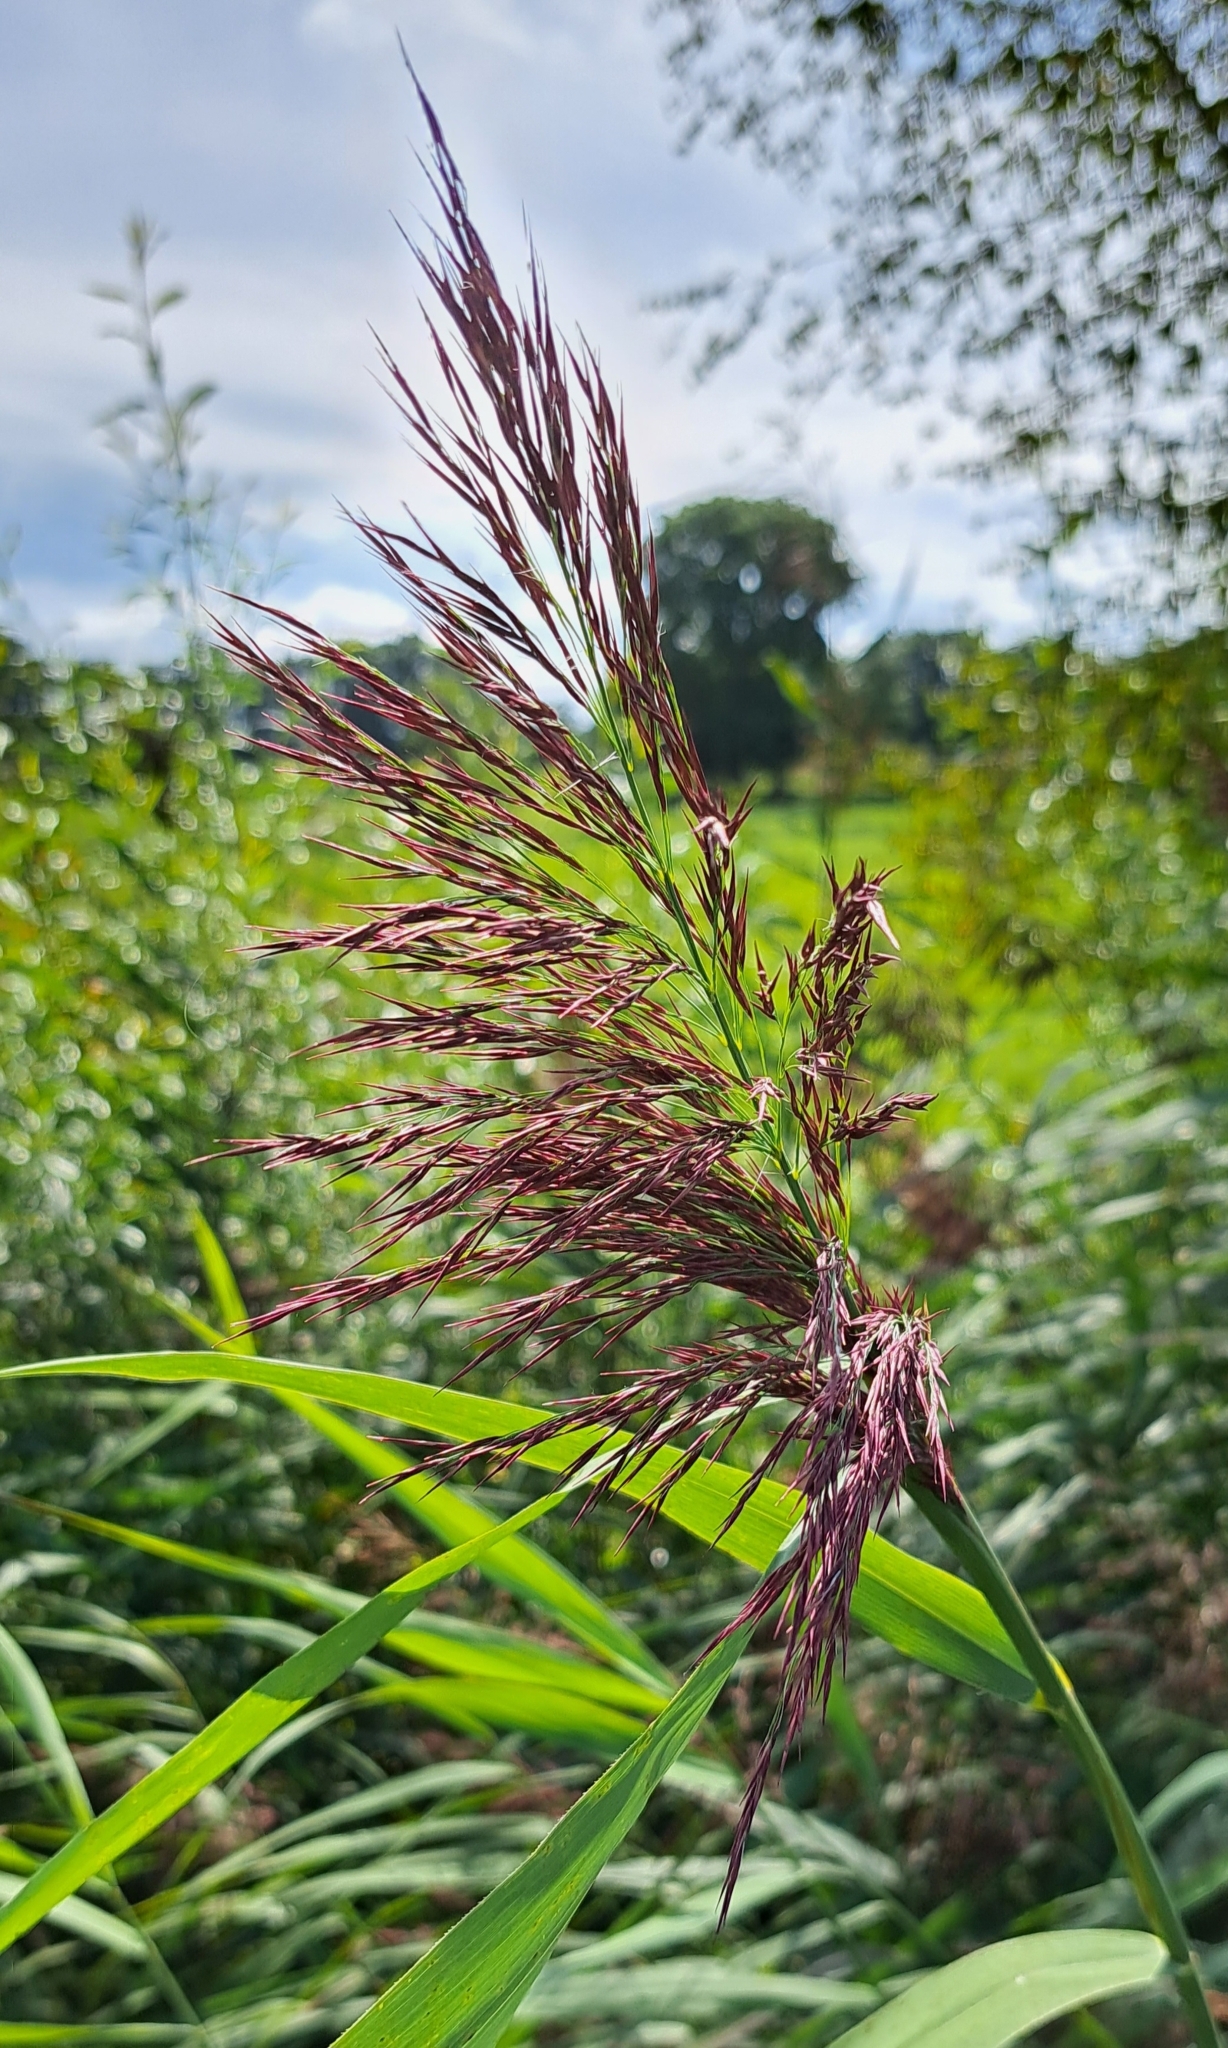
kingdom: Plantae
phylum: Tracheophyta
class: Liliopsida
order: Poales
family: Poaceae
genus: Phragmites
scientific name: Phragmites australis
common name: Common reed
